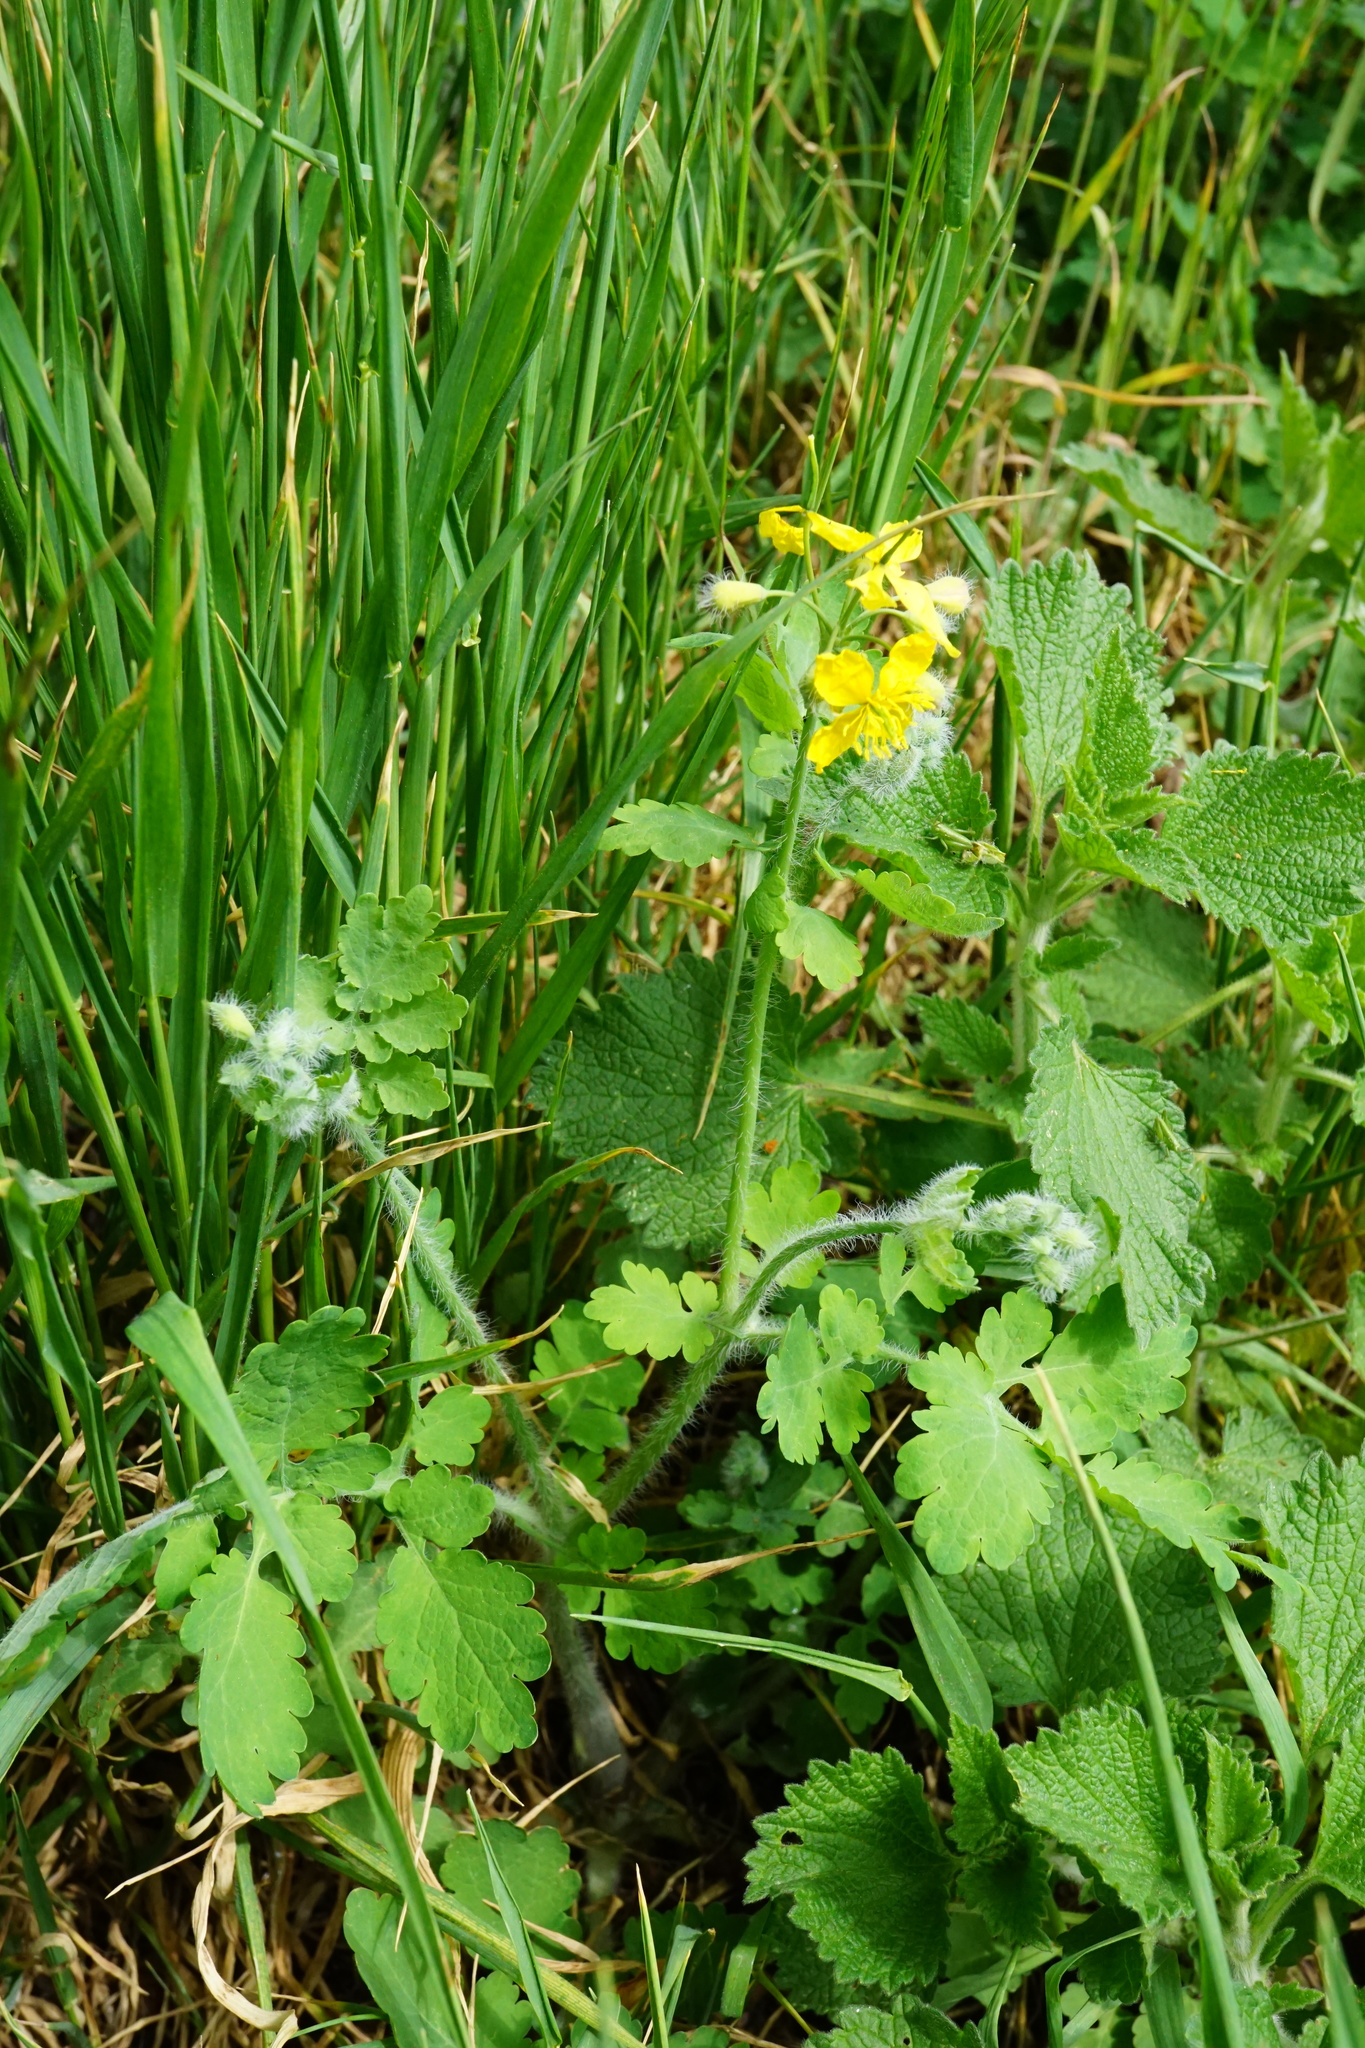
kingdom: Plantae
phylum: Tracheophyta
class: Magnoliopsida
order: Ranunculales
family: Papaveraceae
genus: Chelidonium
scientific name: Chelidonium majus
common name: Greater celandine
